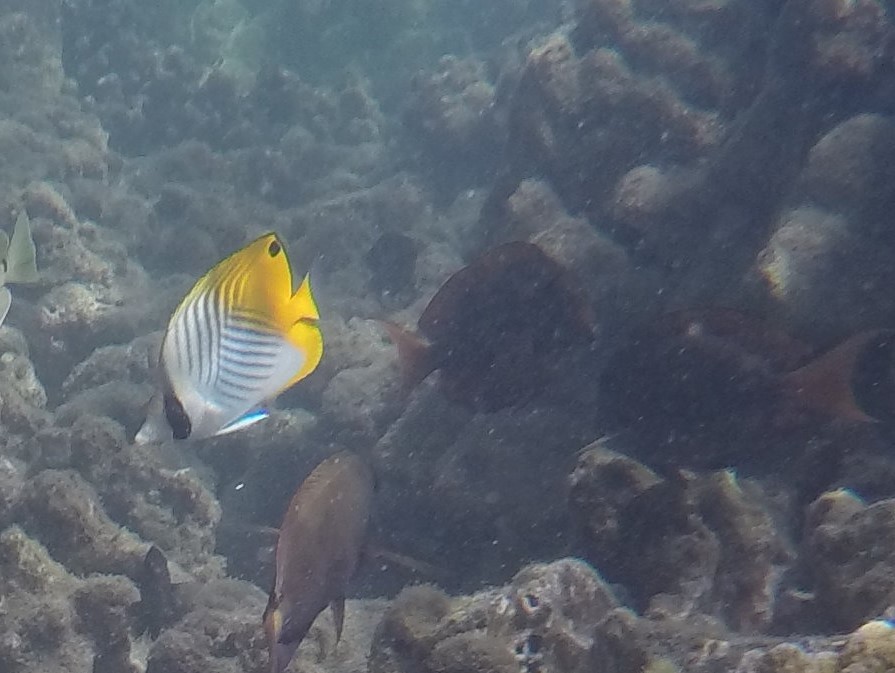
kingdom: Animalia
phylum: Chordata
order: Perciformes
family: Chaetodontidae
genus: Chaetodon
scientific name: Chaetodon auriga
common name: Threadfin butterflyfish
